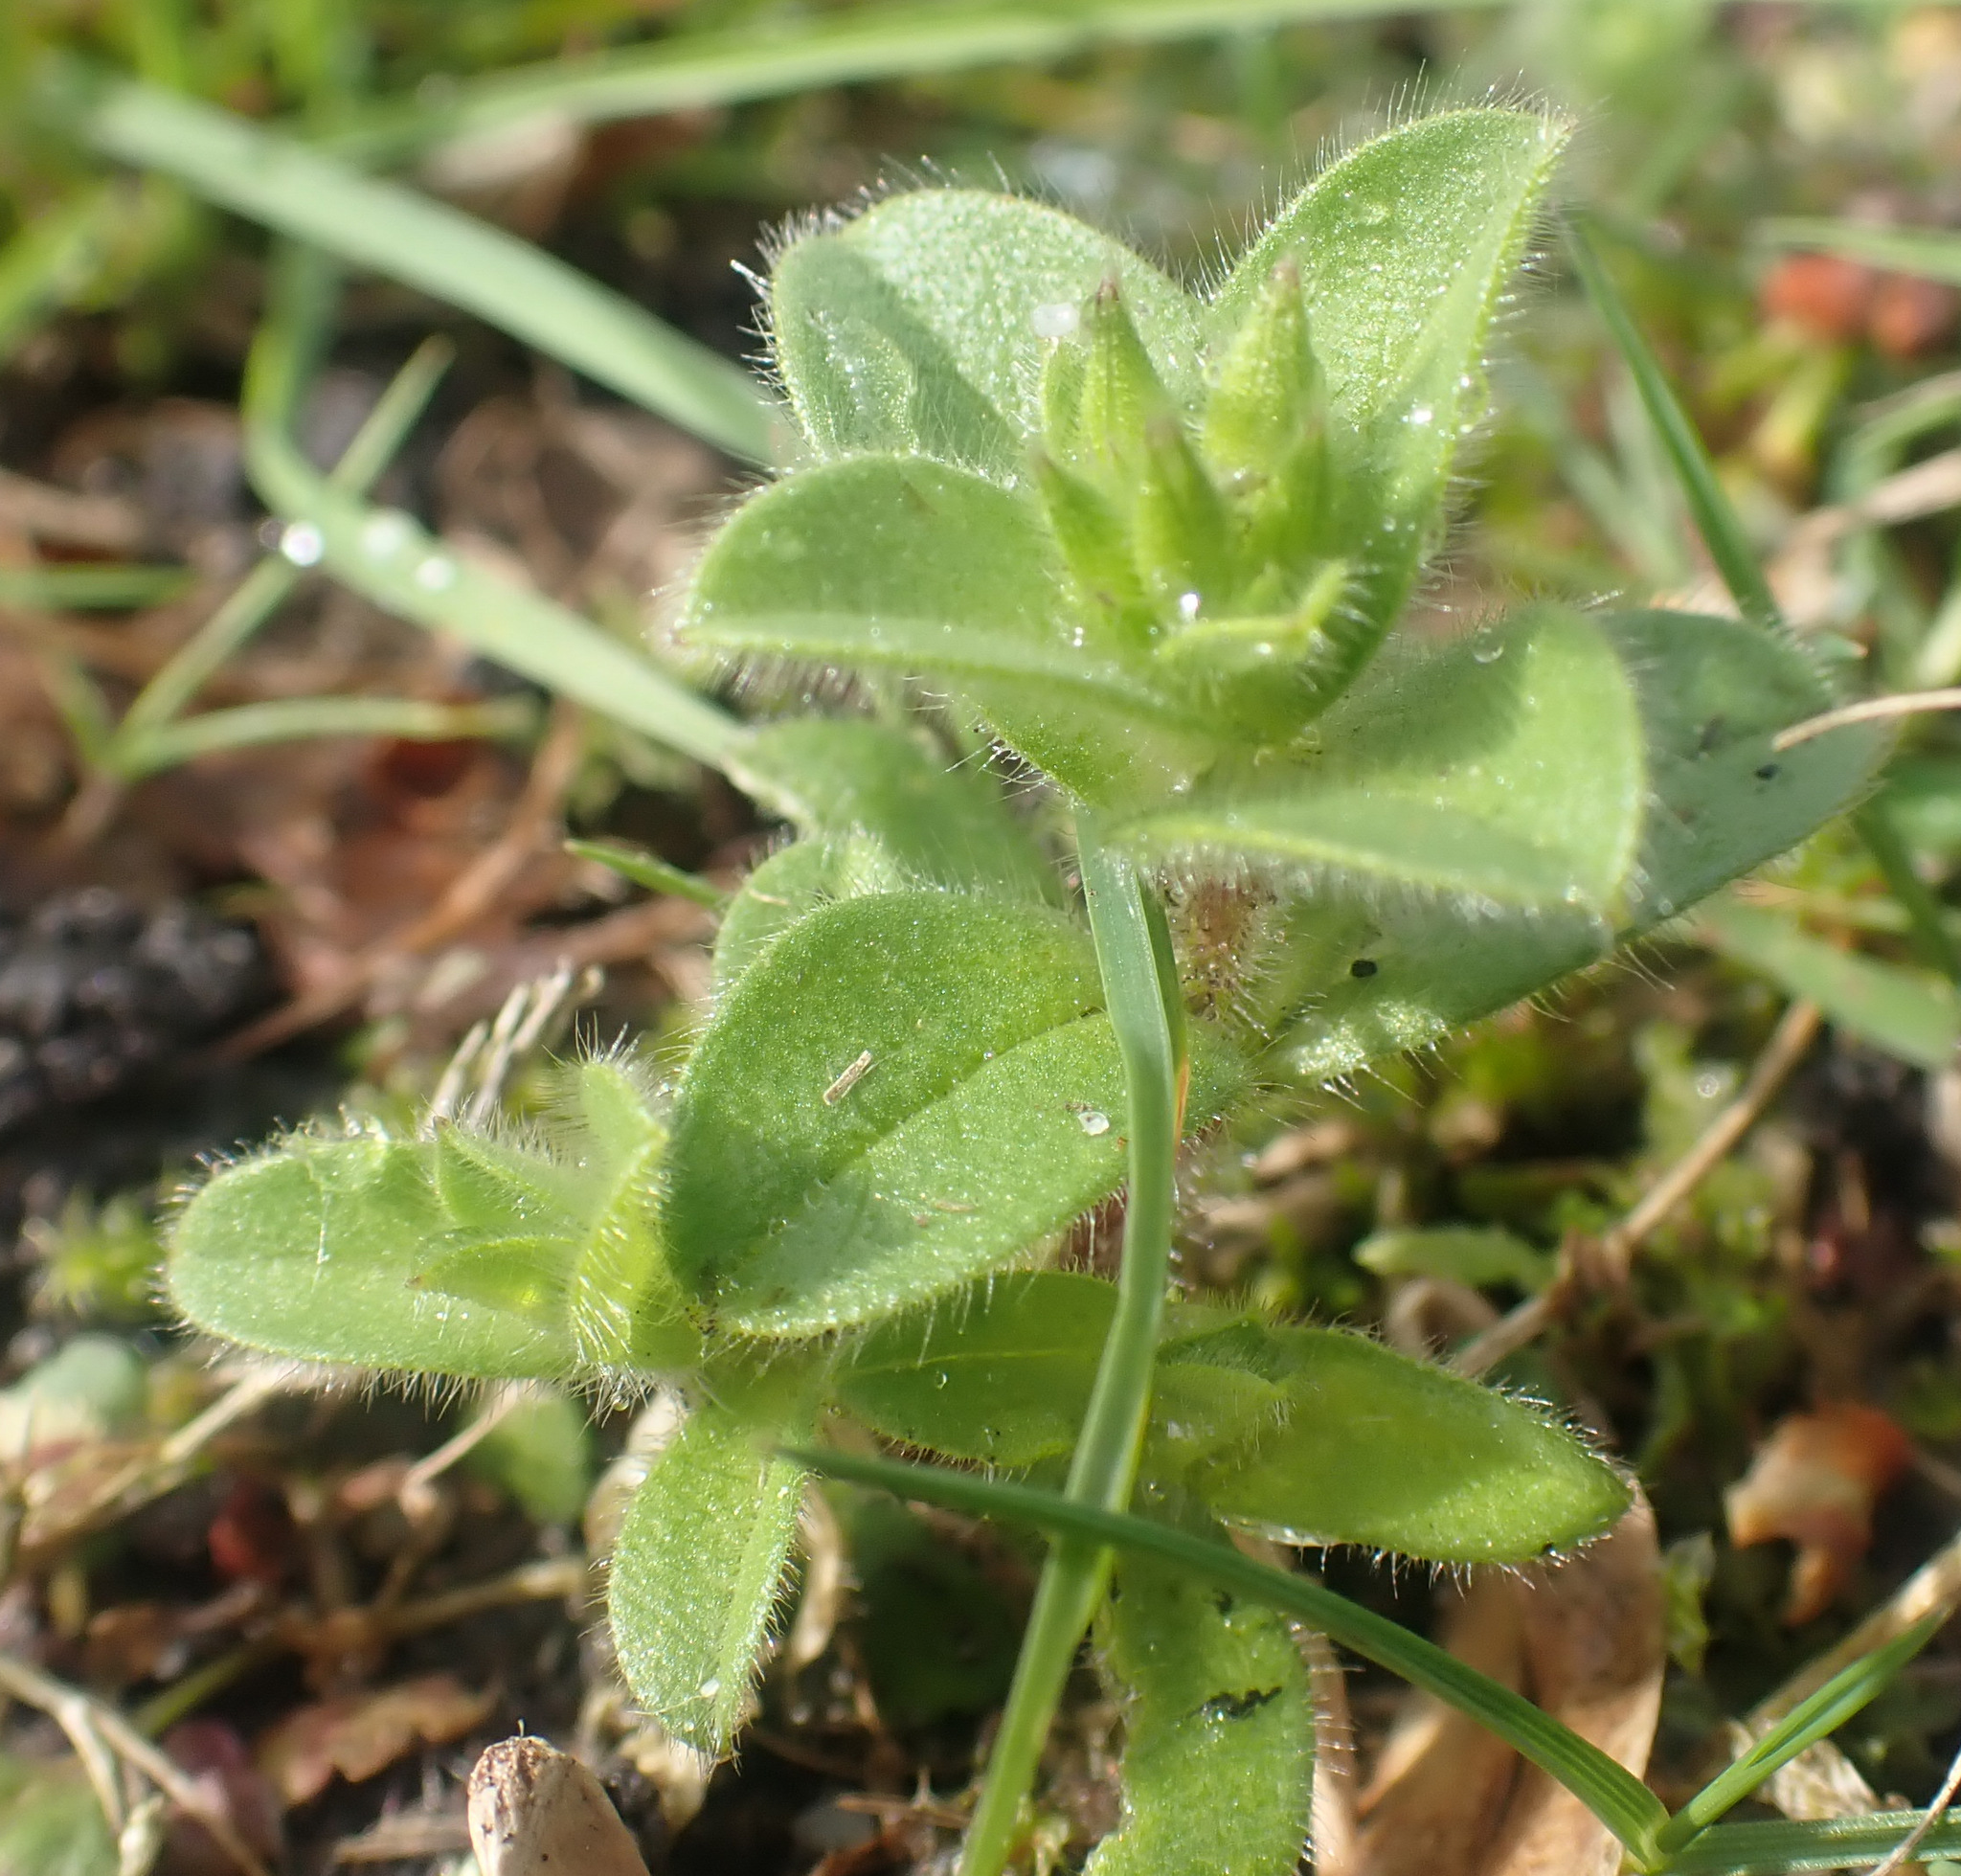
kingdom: Plantae
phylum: Tracheophyta
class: Magnoliopsida
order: Caryophyllales
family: Caryophyllaceae
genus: Cerastium
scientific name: Cerastium glomeratum
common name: Sticky chickweed
